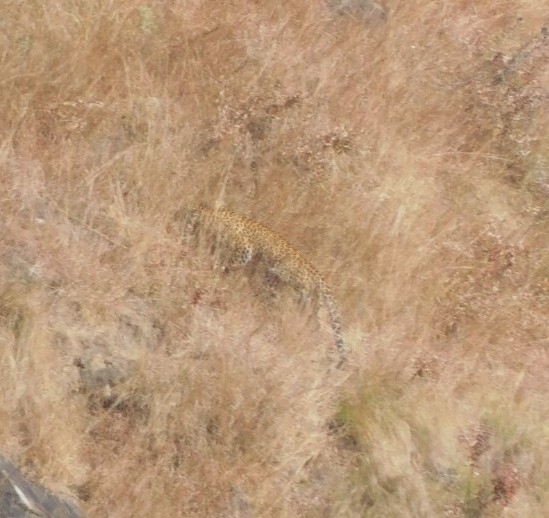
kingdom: Animalia
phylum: Chordata
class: Mammalia
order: Carnivora
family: Felidae
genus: Panthera
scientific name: Panthera pardus
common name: Leopard
